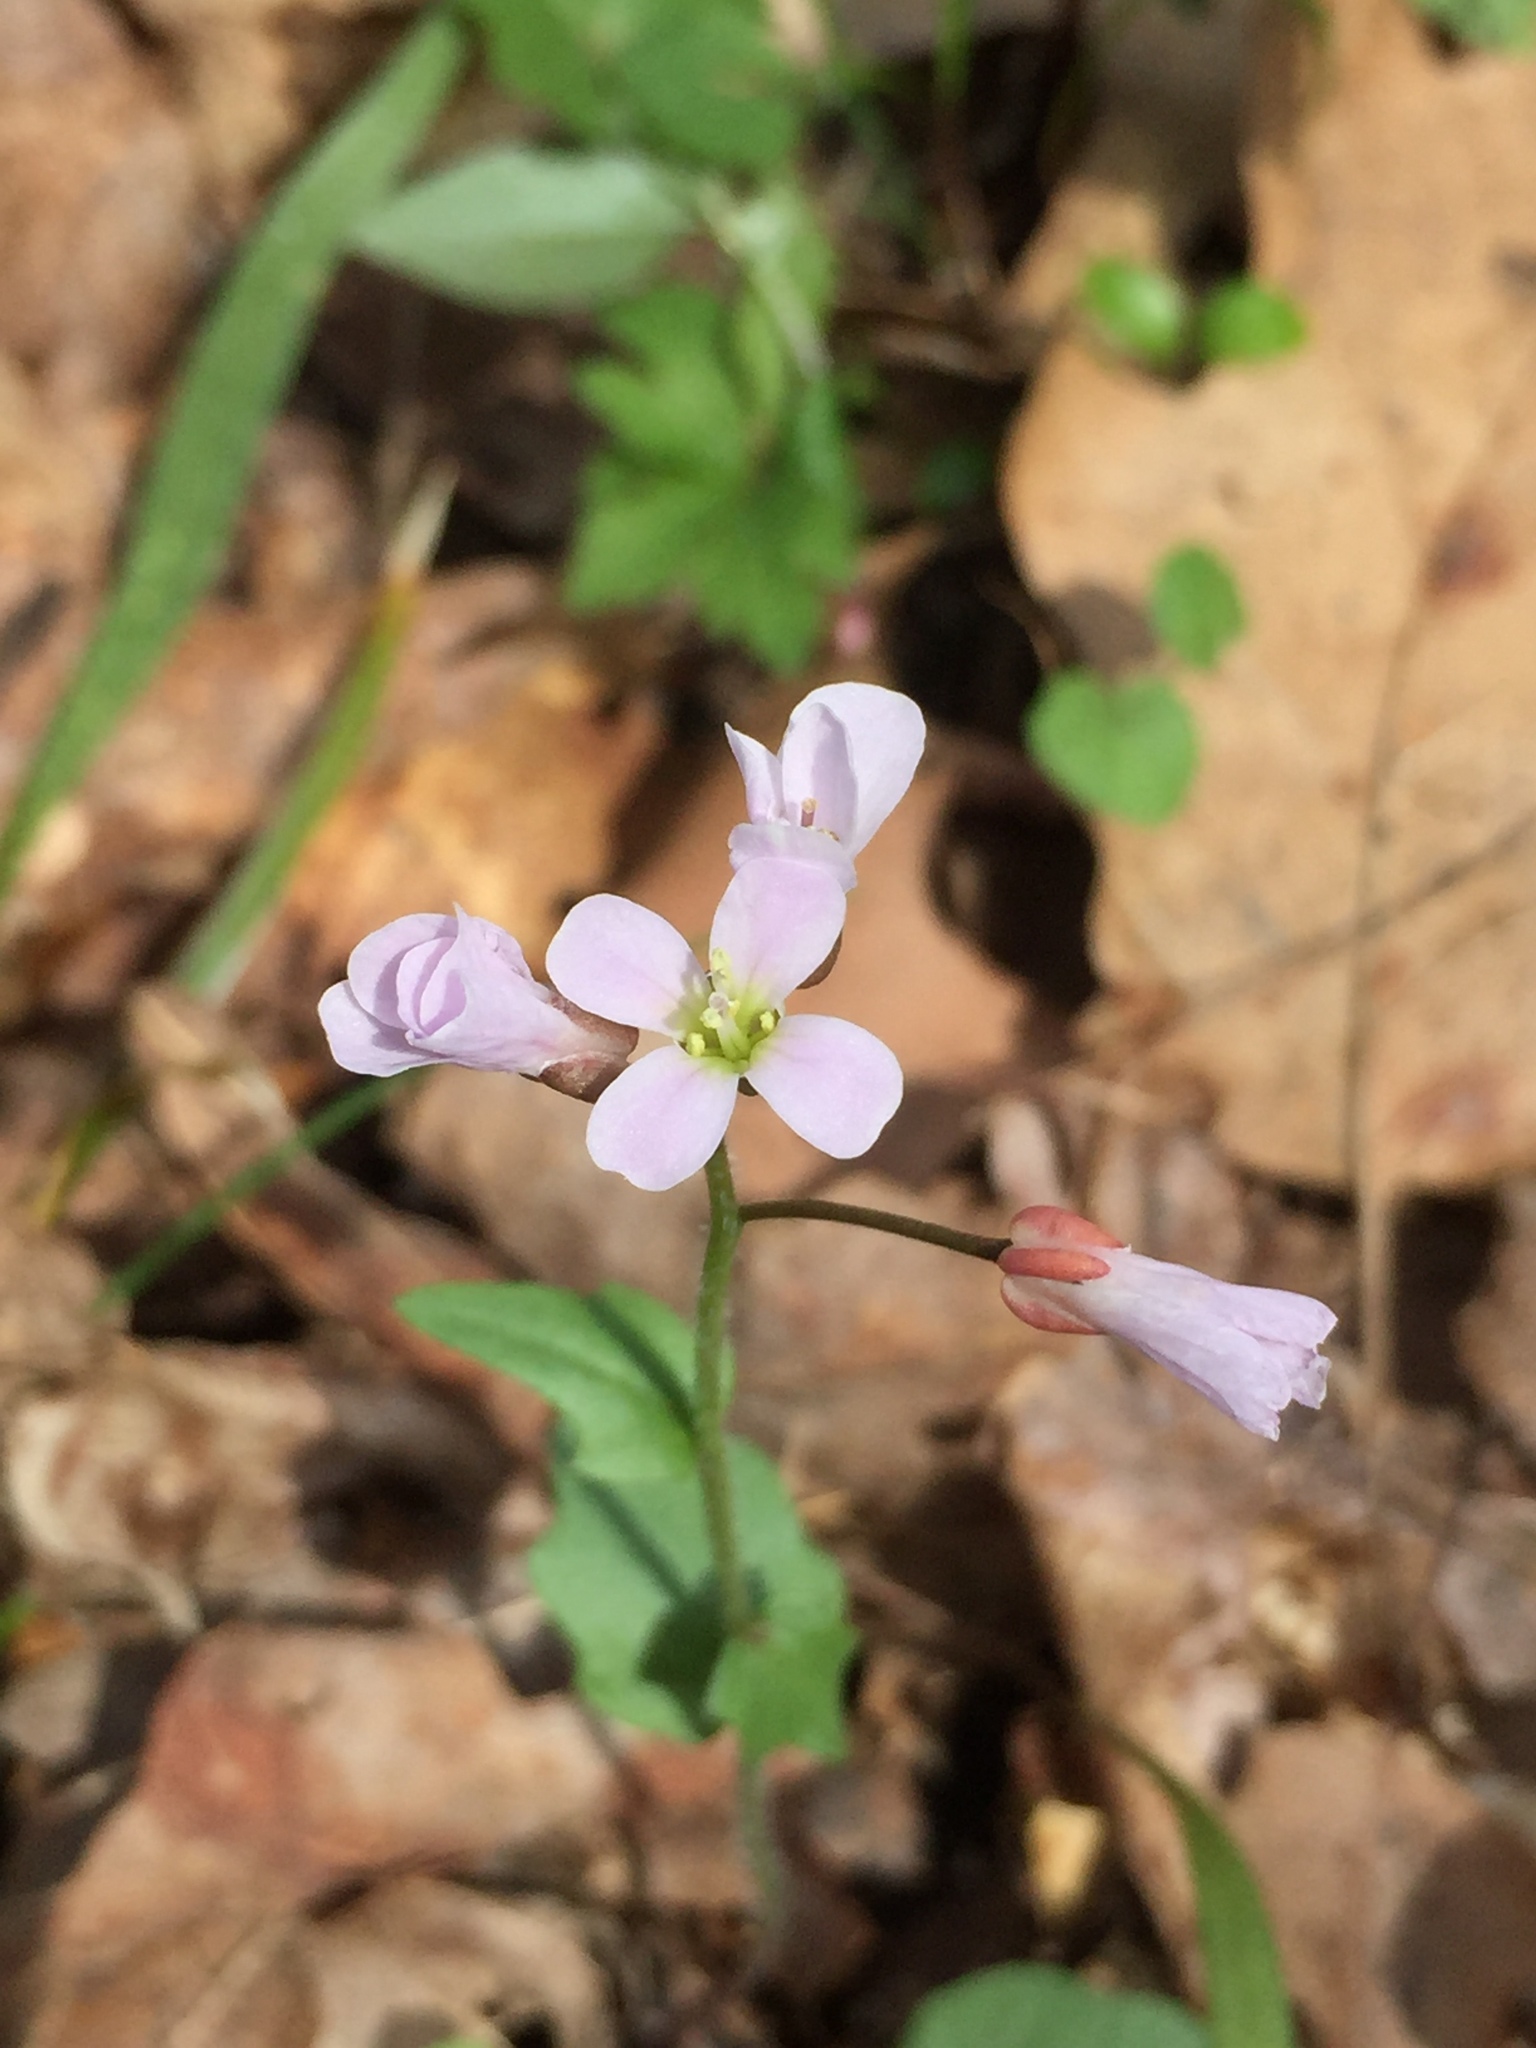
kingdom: Plantae
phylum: Tracheophyta
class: Magnoliopsida
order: Brassicales
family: Brassicaceae
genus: Cardamine
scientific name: Cardamine douglassii
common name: Purple cress
